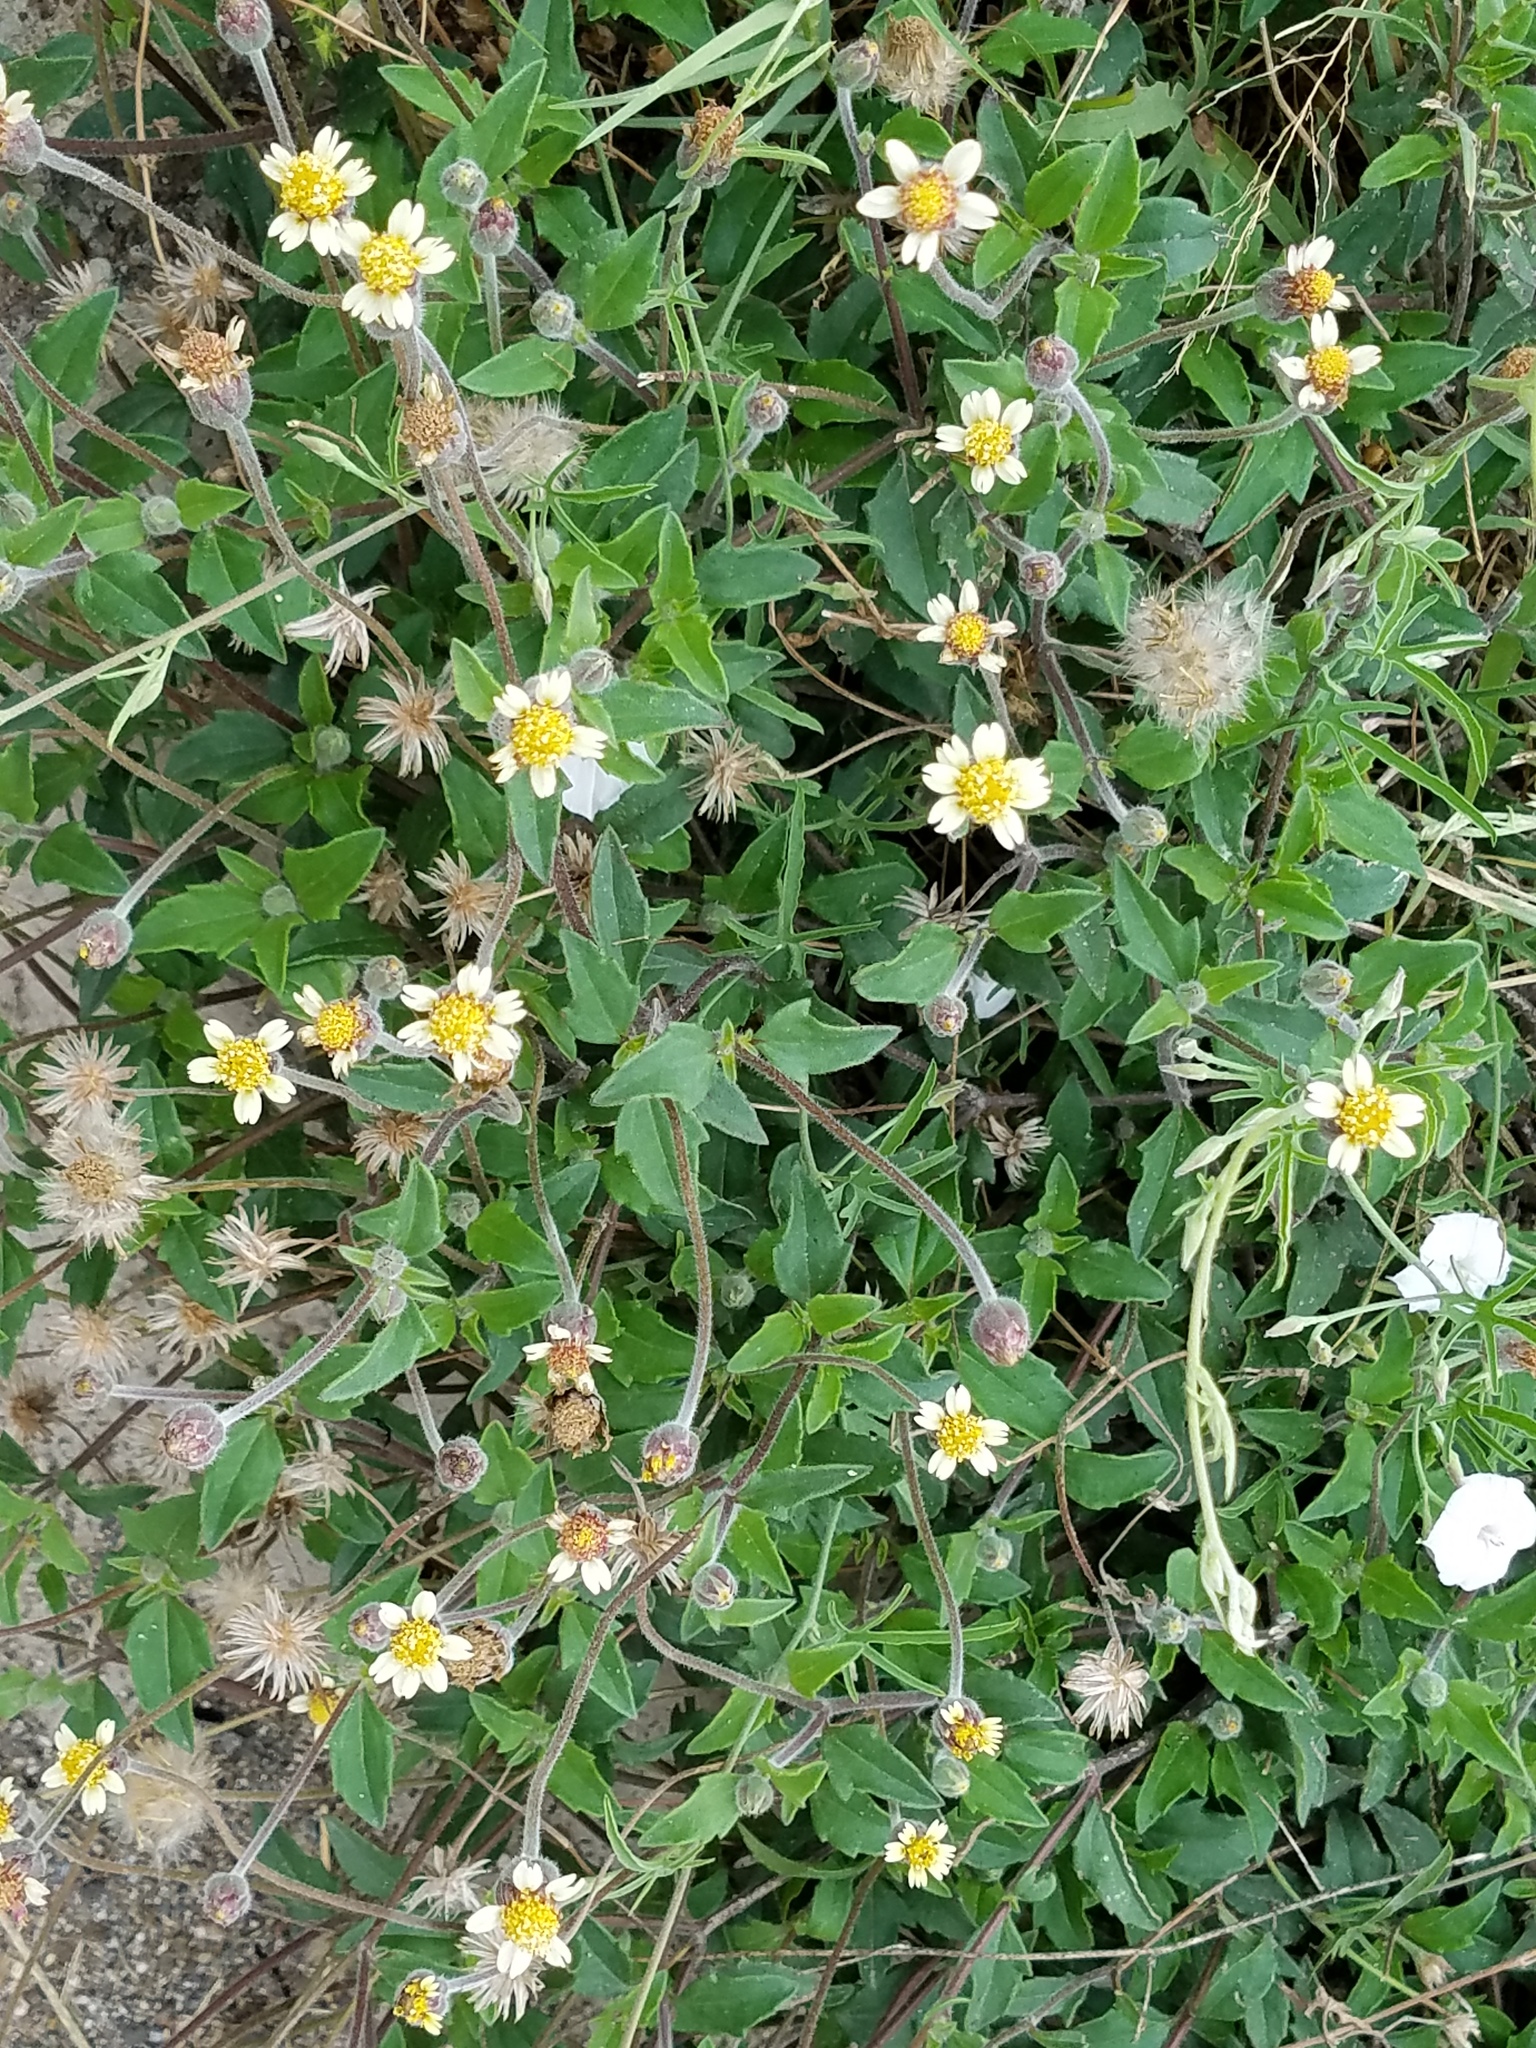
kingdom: Plantae
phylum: Tracheophyta
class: Magnoliopsida
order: Asterales
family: Asteraceae
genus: Tridax
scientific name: Tridax procumbens
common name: Coatbuttons
